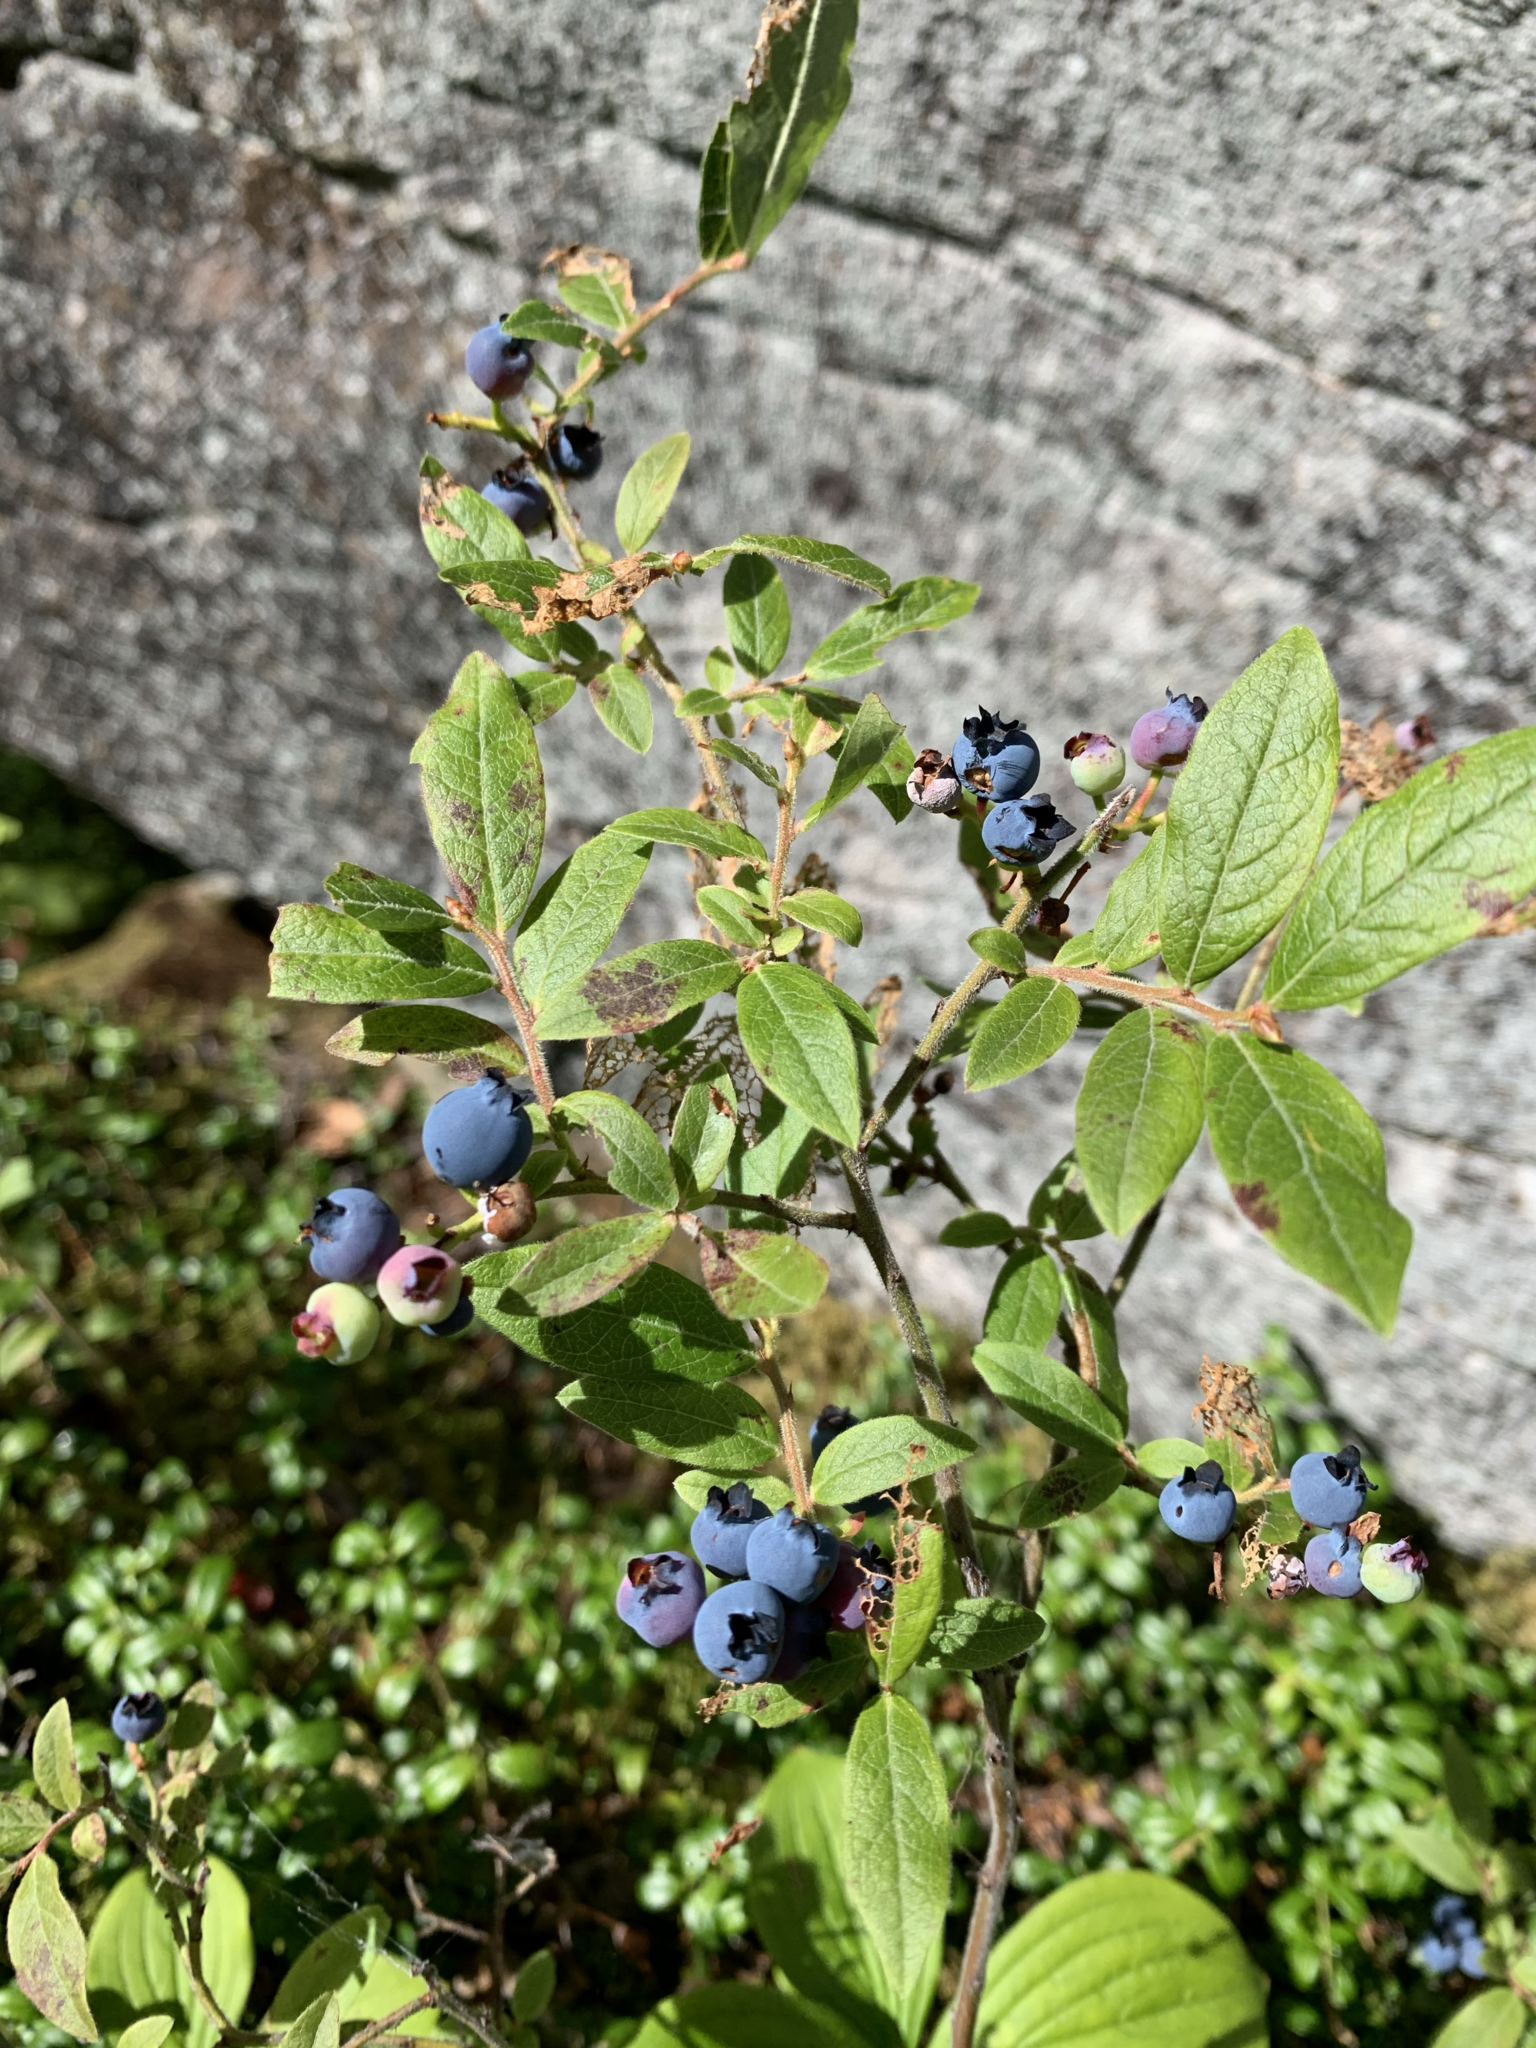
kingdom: Plantae
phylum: Tracheophyta
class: Magnoliopsida
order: Ericales
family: Ericaceae
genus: Vaccinium
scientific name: Vaccinium myrtilloides
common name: Canada blueberry
